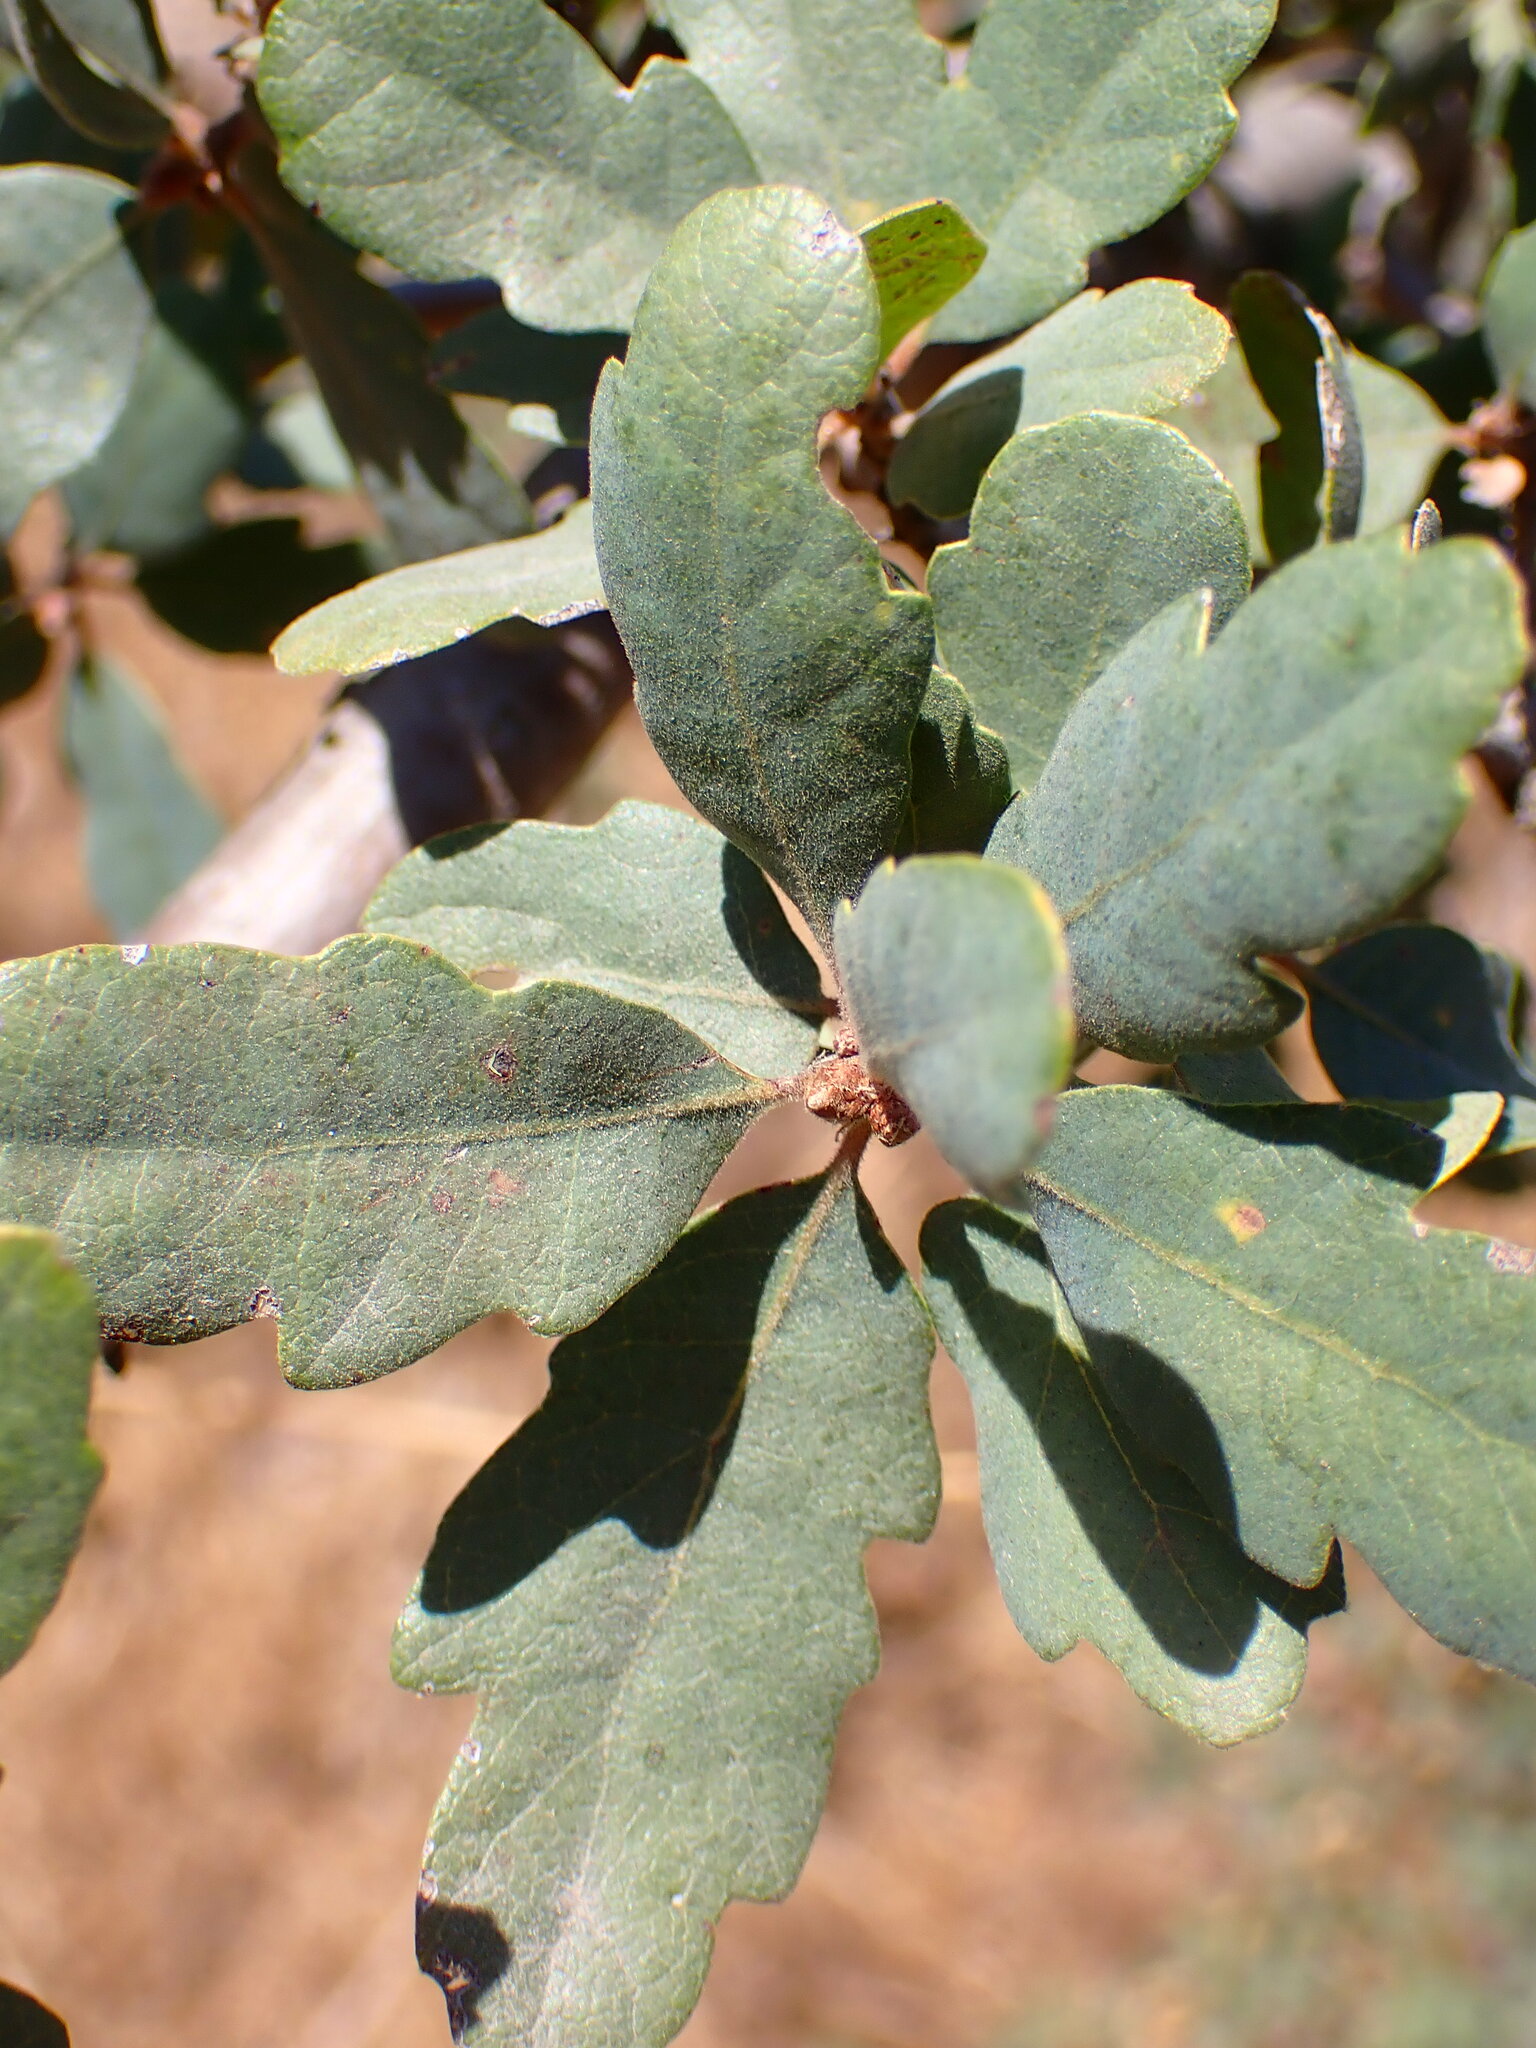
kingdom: Plantae
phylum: Tracheophyta
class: Magnoliopsida
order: Fagales
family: Fagaceae
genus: Quercus
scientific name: Quercus douglasii
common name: Blue oak
